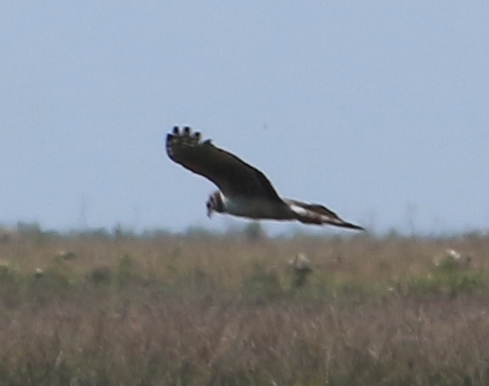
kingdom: Animalia
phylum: Chordata
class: Aves
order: Accipitriformes
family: Accipitridae
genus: Circus
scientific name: Circus buffoni
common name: Long-winged harrier
